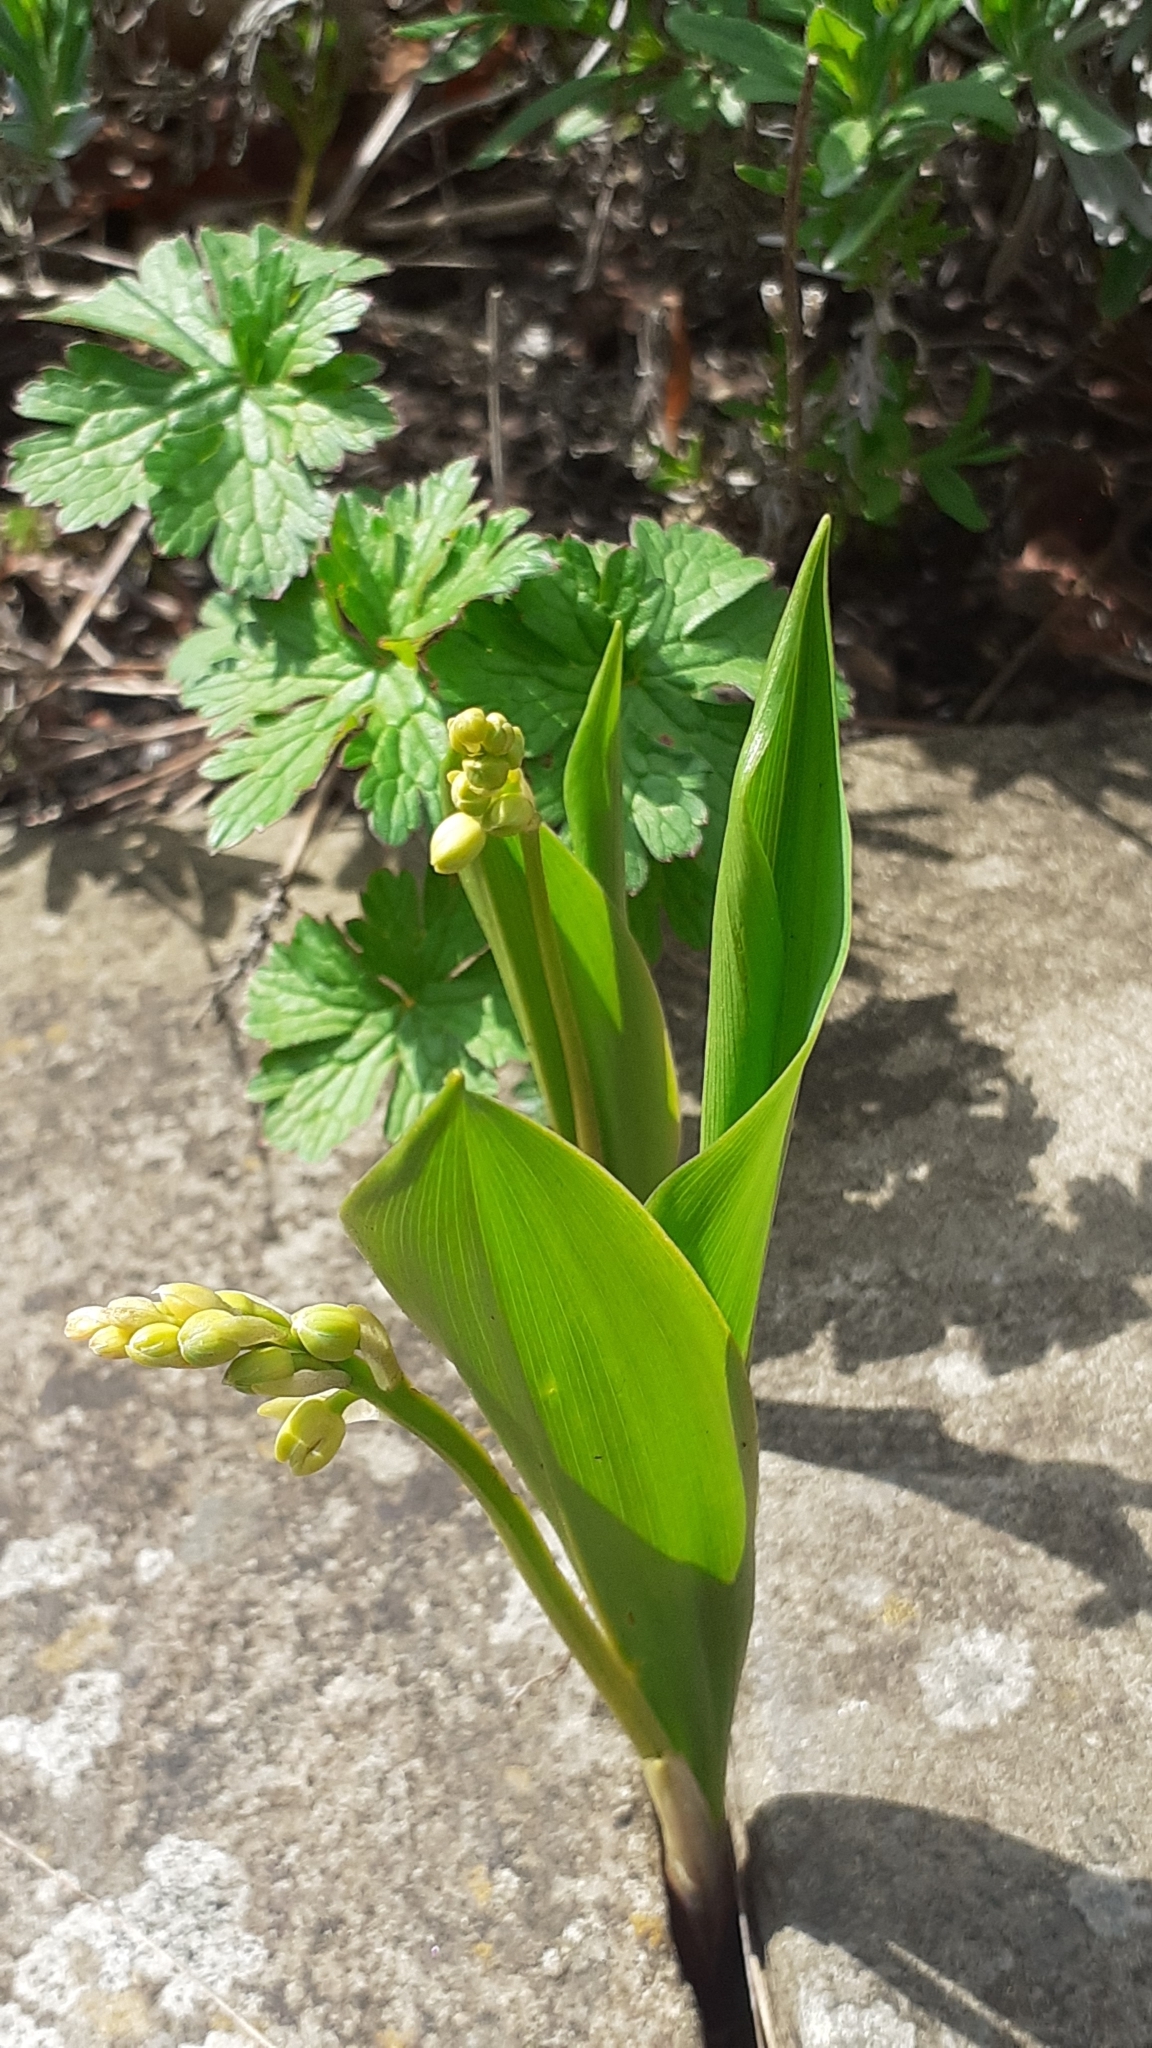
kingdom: Plantae
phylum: Tracheophyta
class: Liliopsida
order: Asparagales
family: Asparagaceae
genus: Convallaria
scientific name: Convallaria majalis
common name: Lily-of-the-valley
